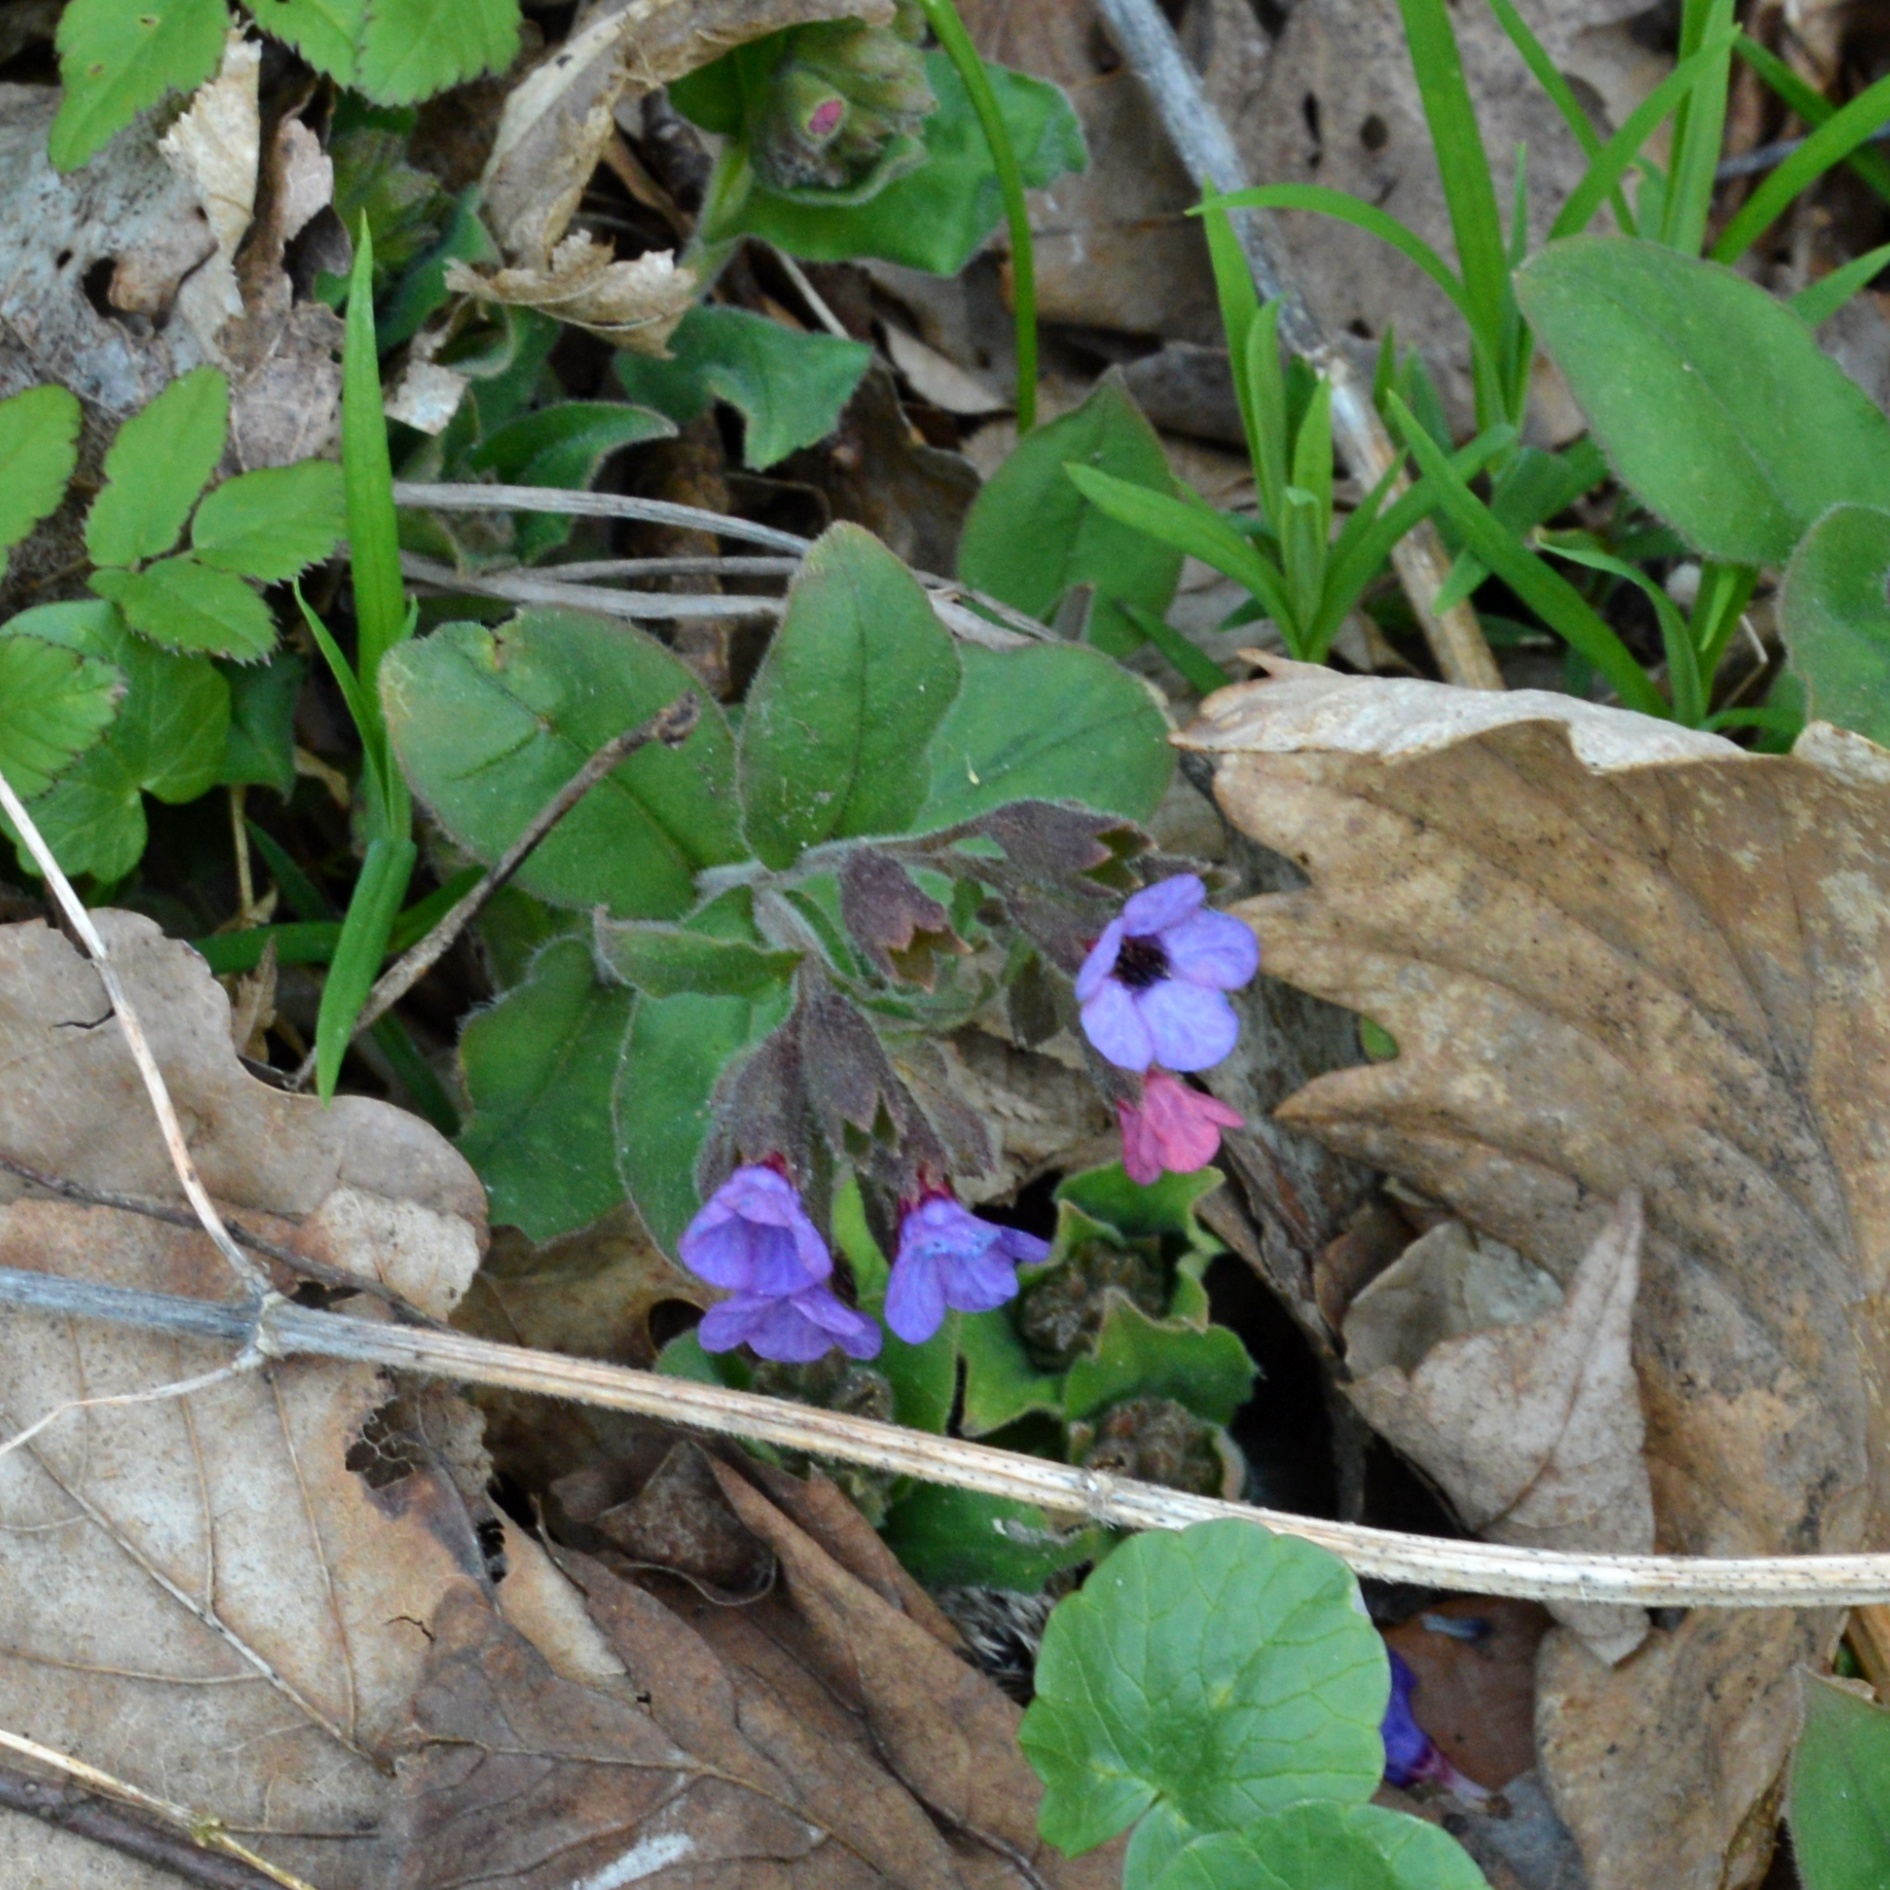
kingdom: Plantae
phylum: Tracheophyta
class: Magnoliopsida
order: Boraginales
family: Boraginaceae
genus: Pulmonaria
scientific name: Pulmonaria obscura
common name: Suffolk lungwort
